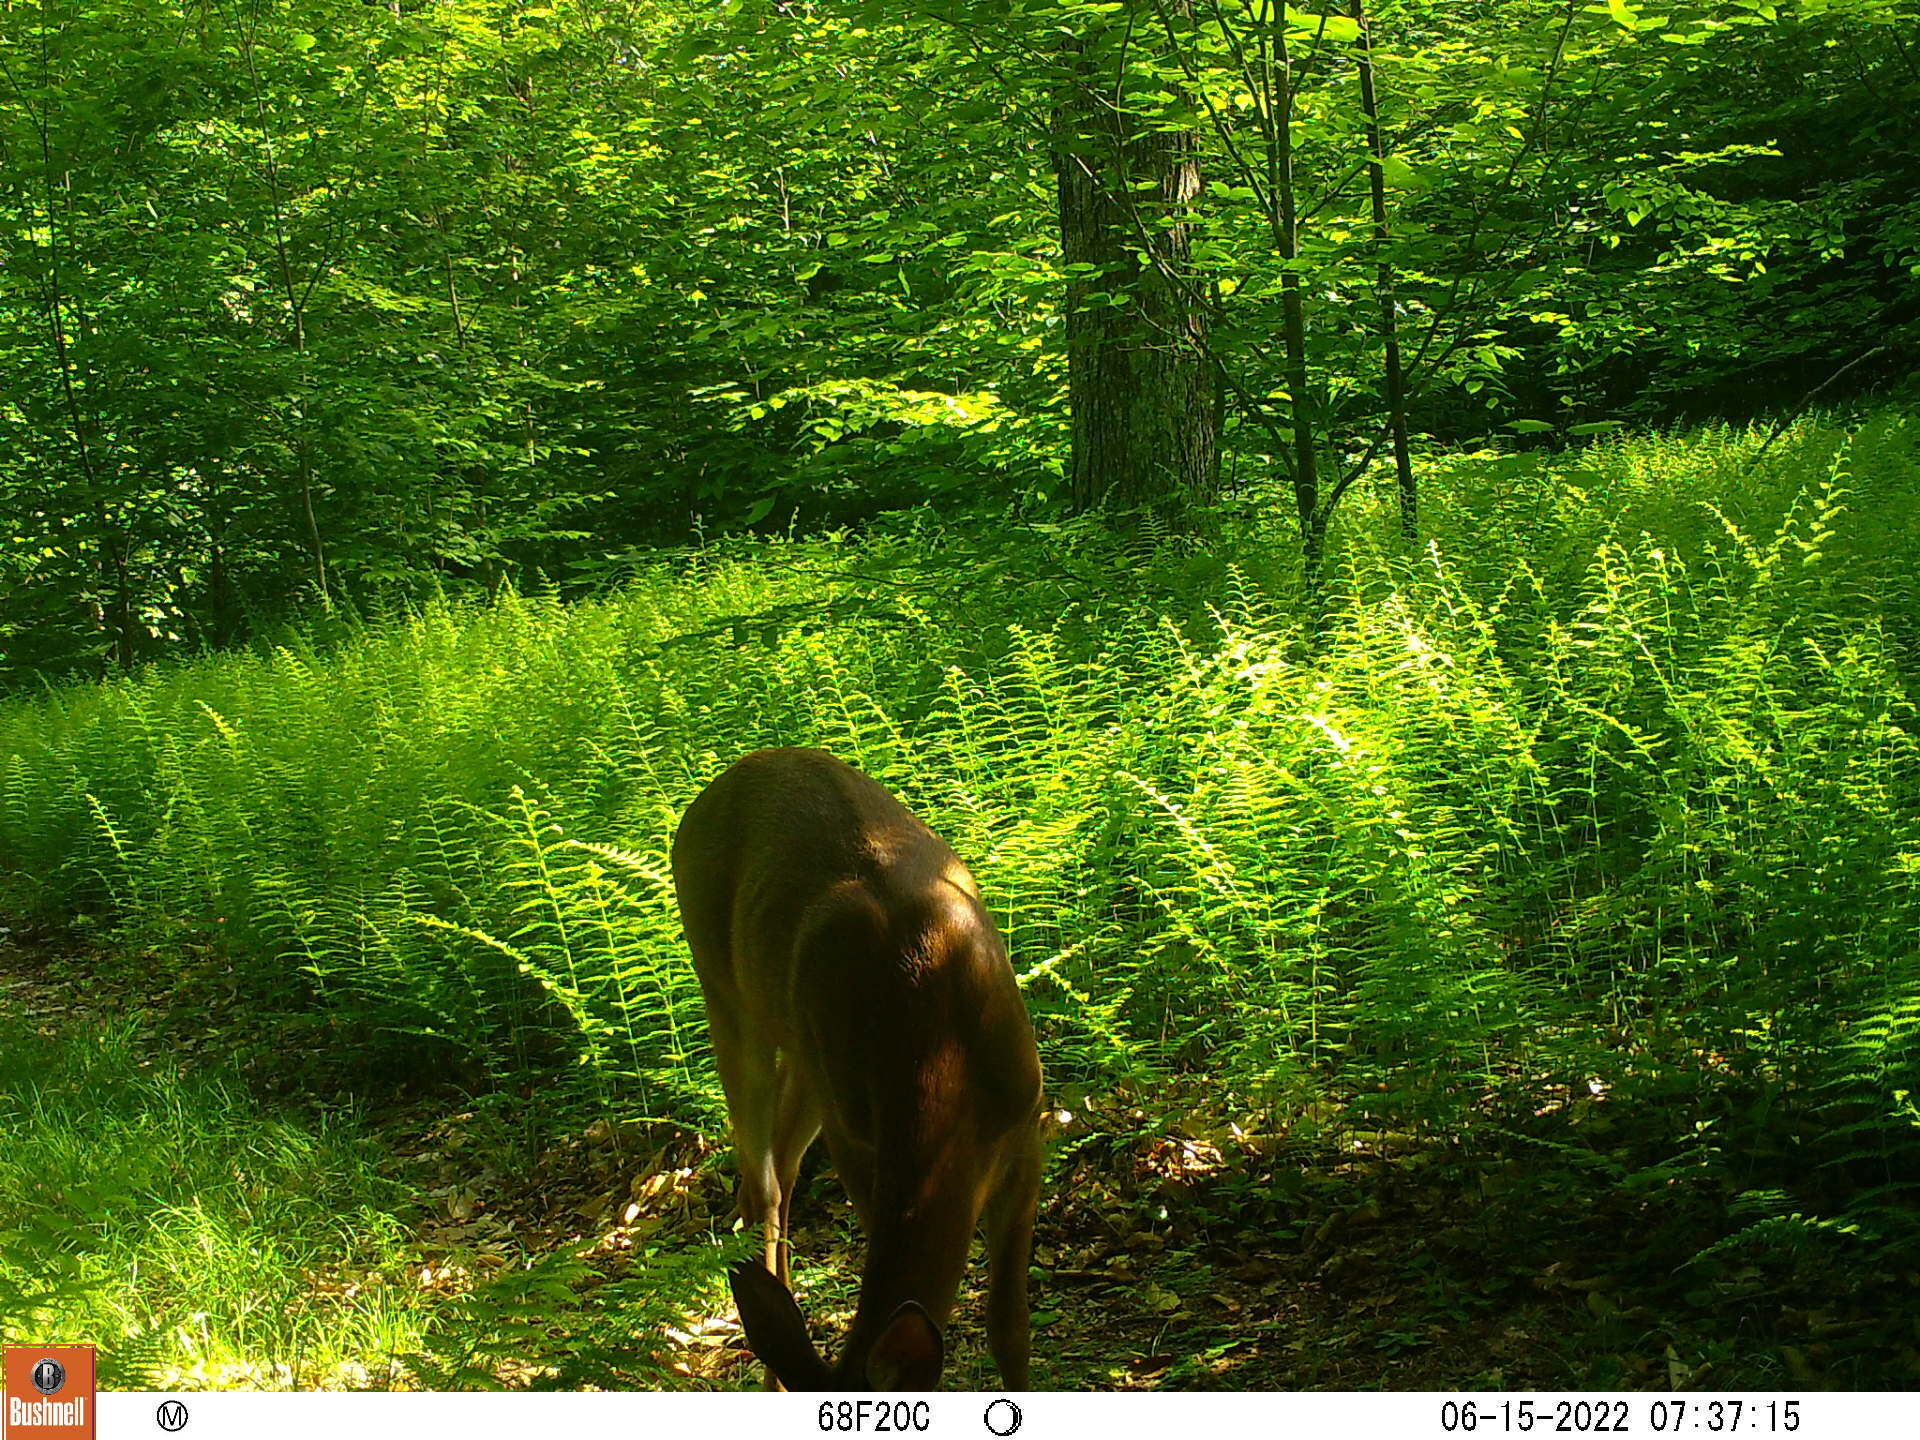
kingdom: Animalia
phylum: Chordata
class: Mammalia
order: Artiodactyla
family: Cervidae
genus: Odocoileus
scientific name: Odocoileus virginianus
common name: White-tailed deer
